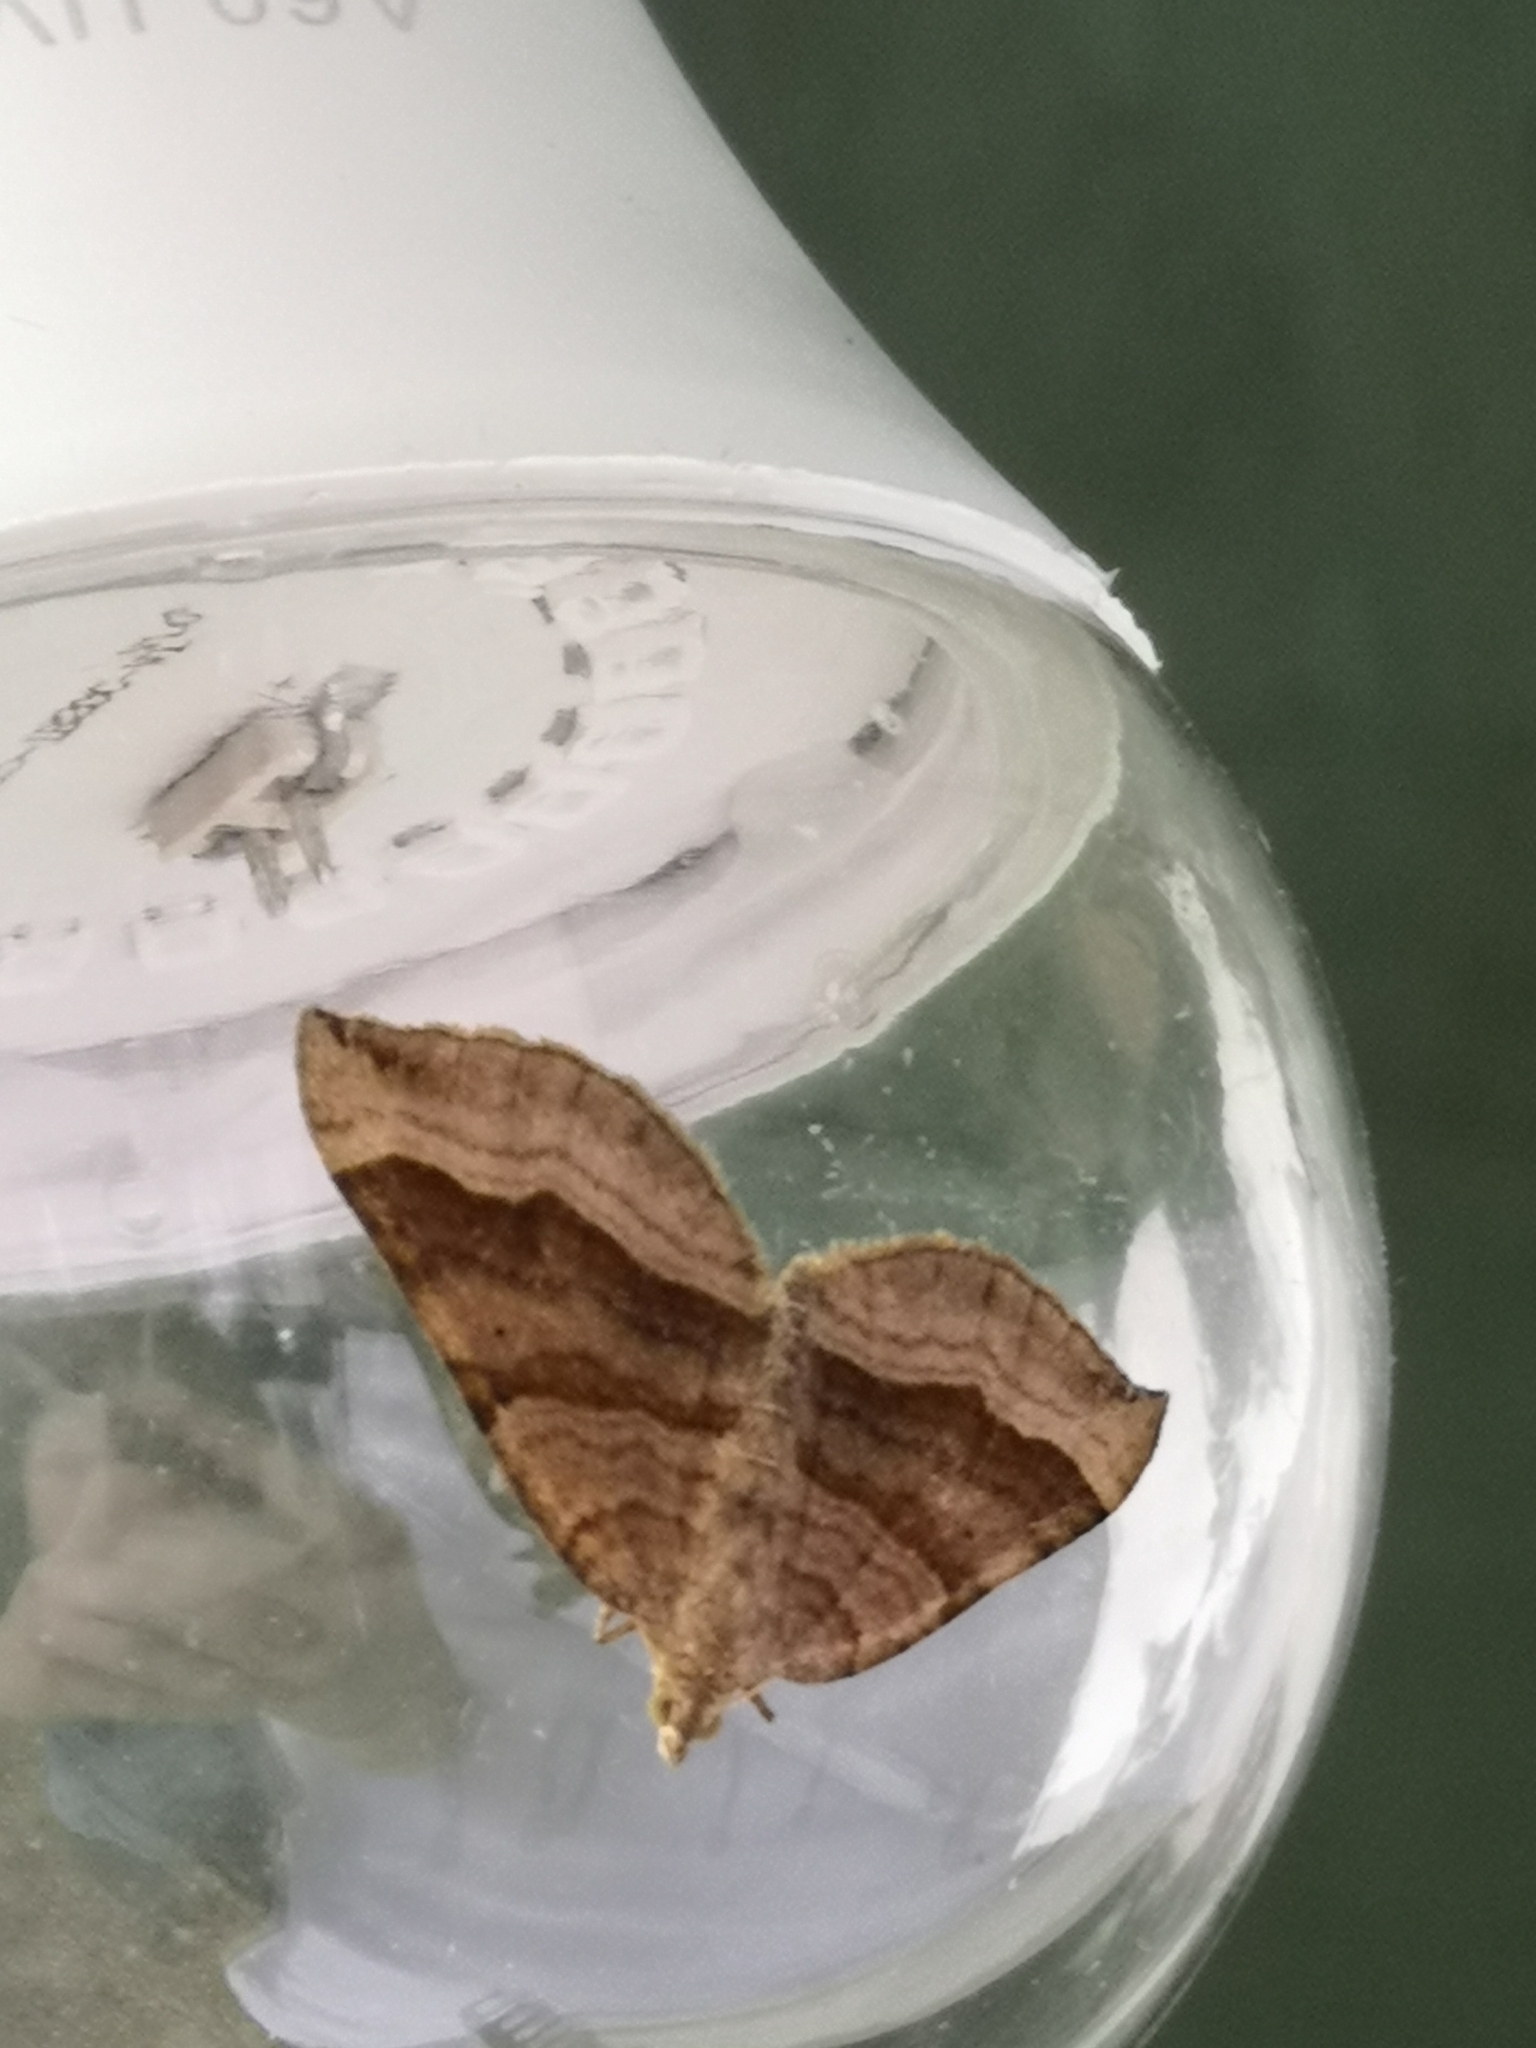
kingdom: Animalia
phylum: Arthropoda
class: Insecta
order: Lepidoptera
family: Geometridae
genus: Scotopteryx
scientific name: Scotopteryx chenopodiata
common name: Shaded broad-bar
